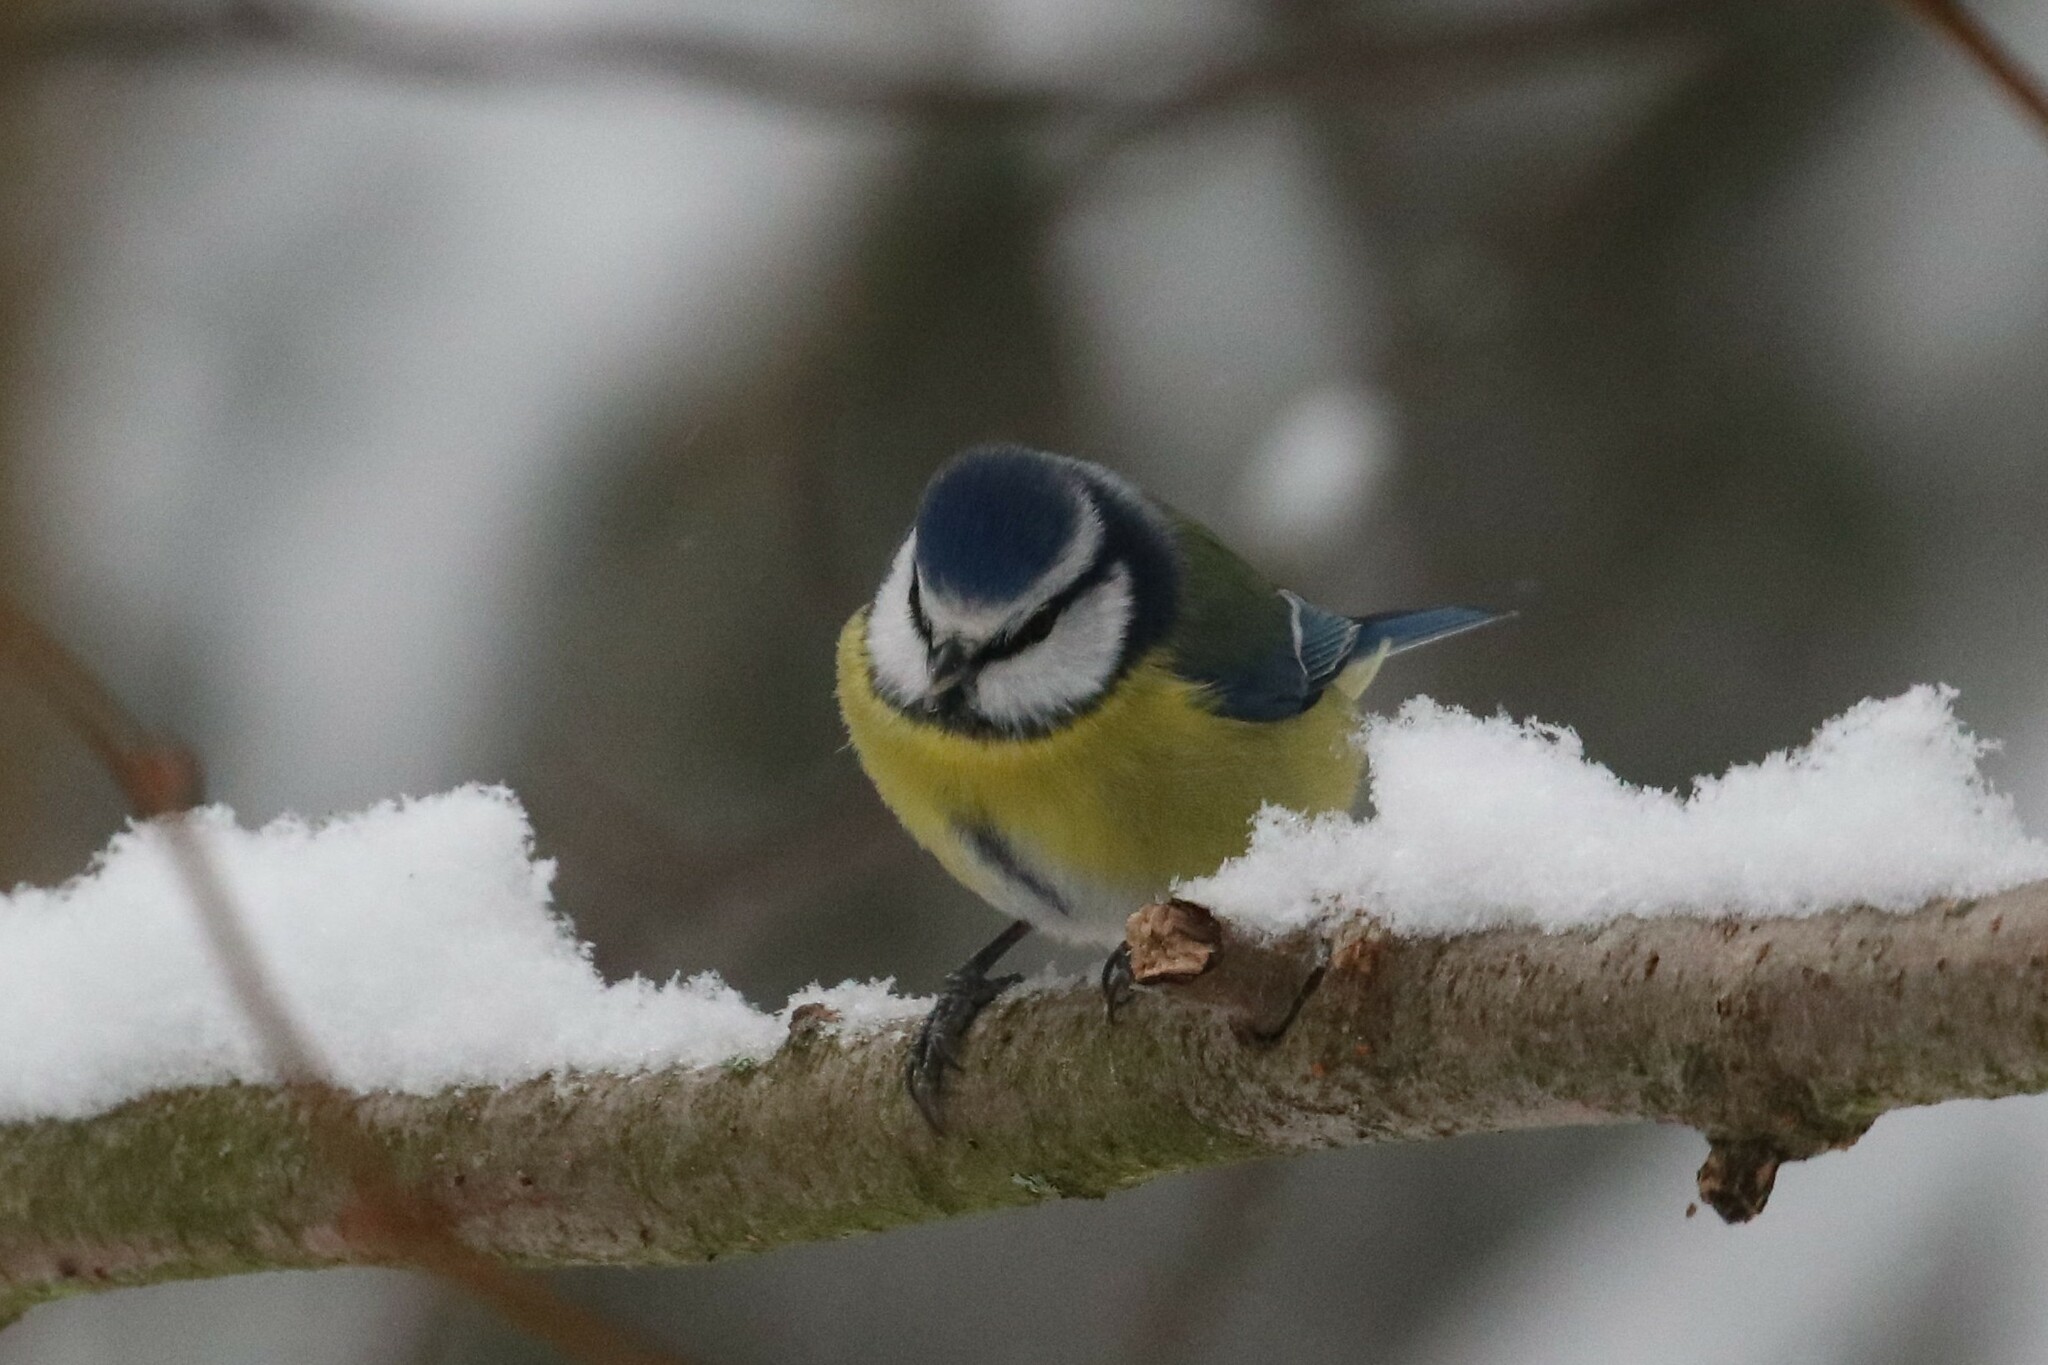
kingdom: Animalia
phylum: Chordata
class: Aves
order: Passeriformes
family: Paridae
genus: Cyanistes
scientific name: Cyanistes caeruleus
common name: Eurasian blue tit
